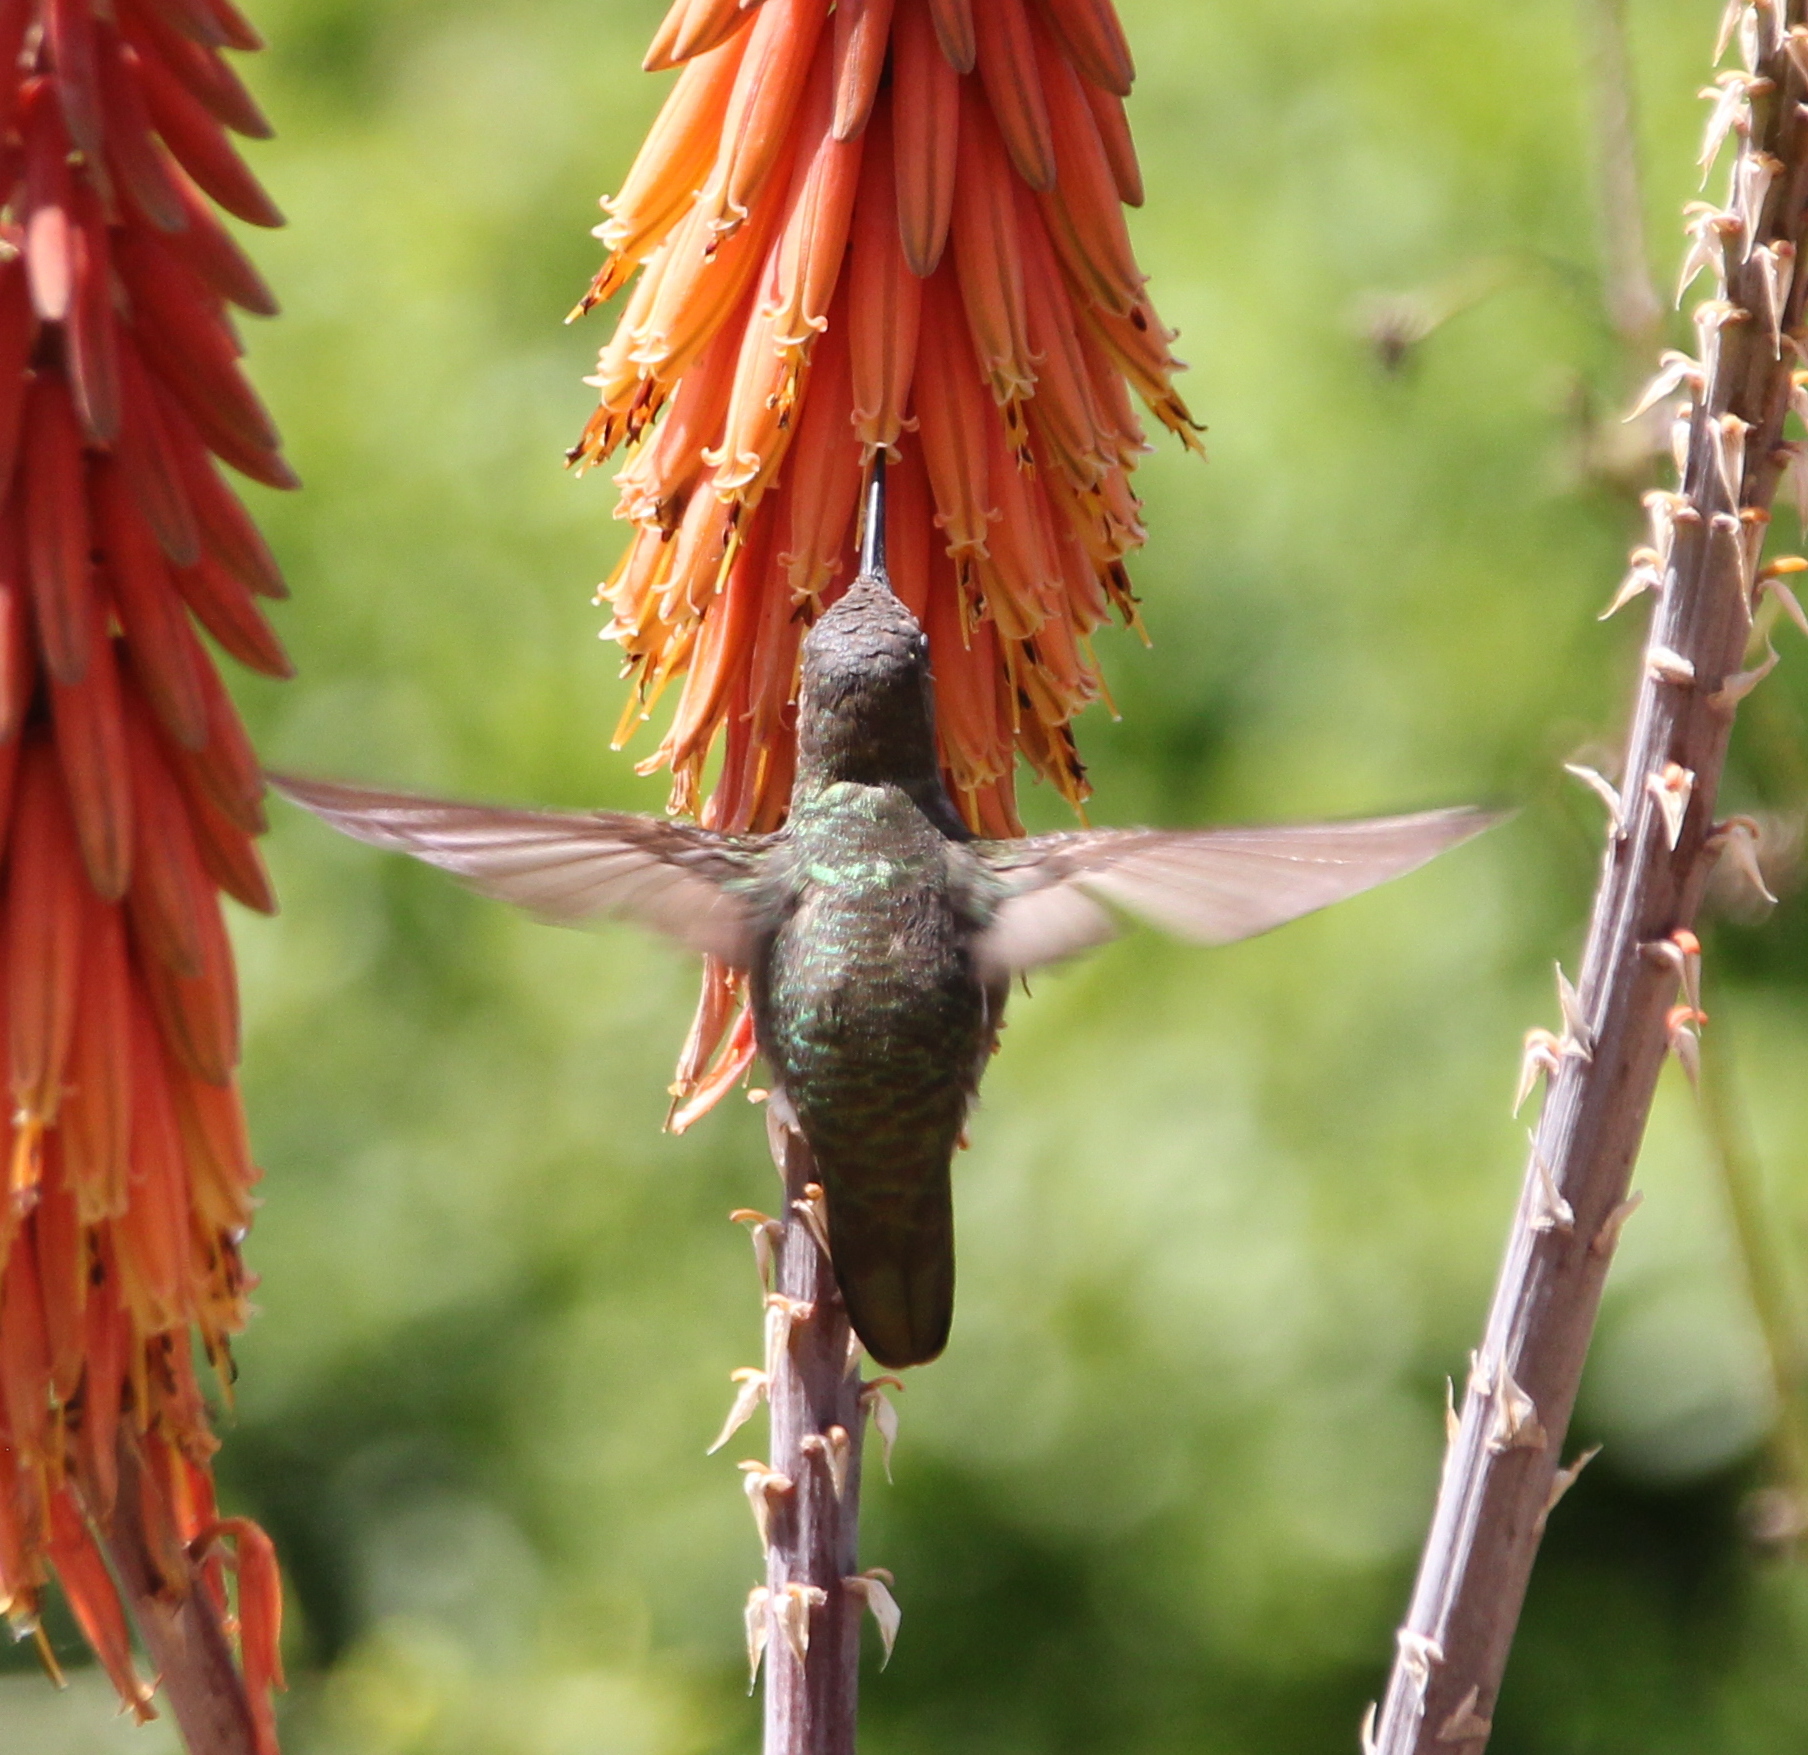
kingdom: Animalia
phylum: Chordata
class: Aves
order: Apodiformes
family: Trochilidae
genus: Calypte
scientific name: Calypte anna
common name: Anna's hummingbird
